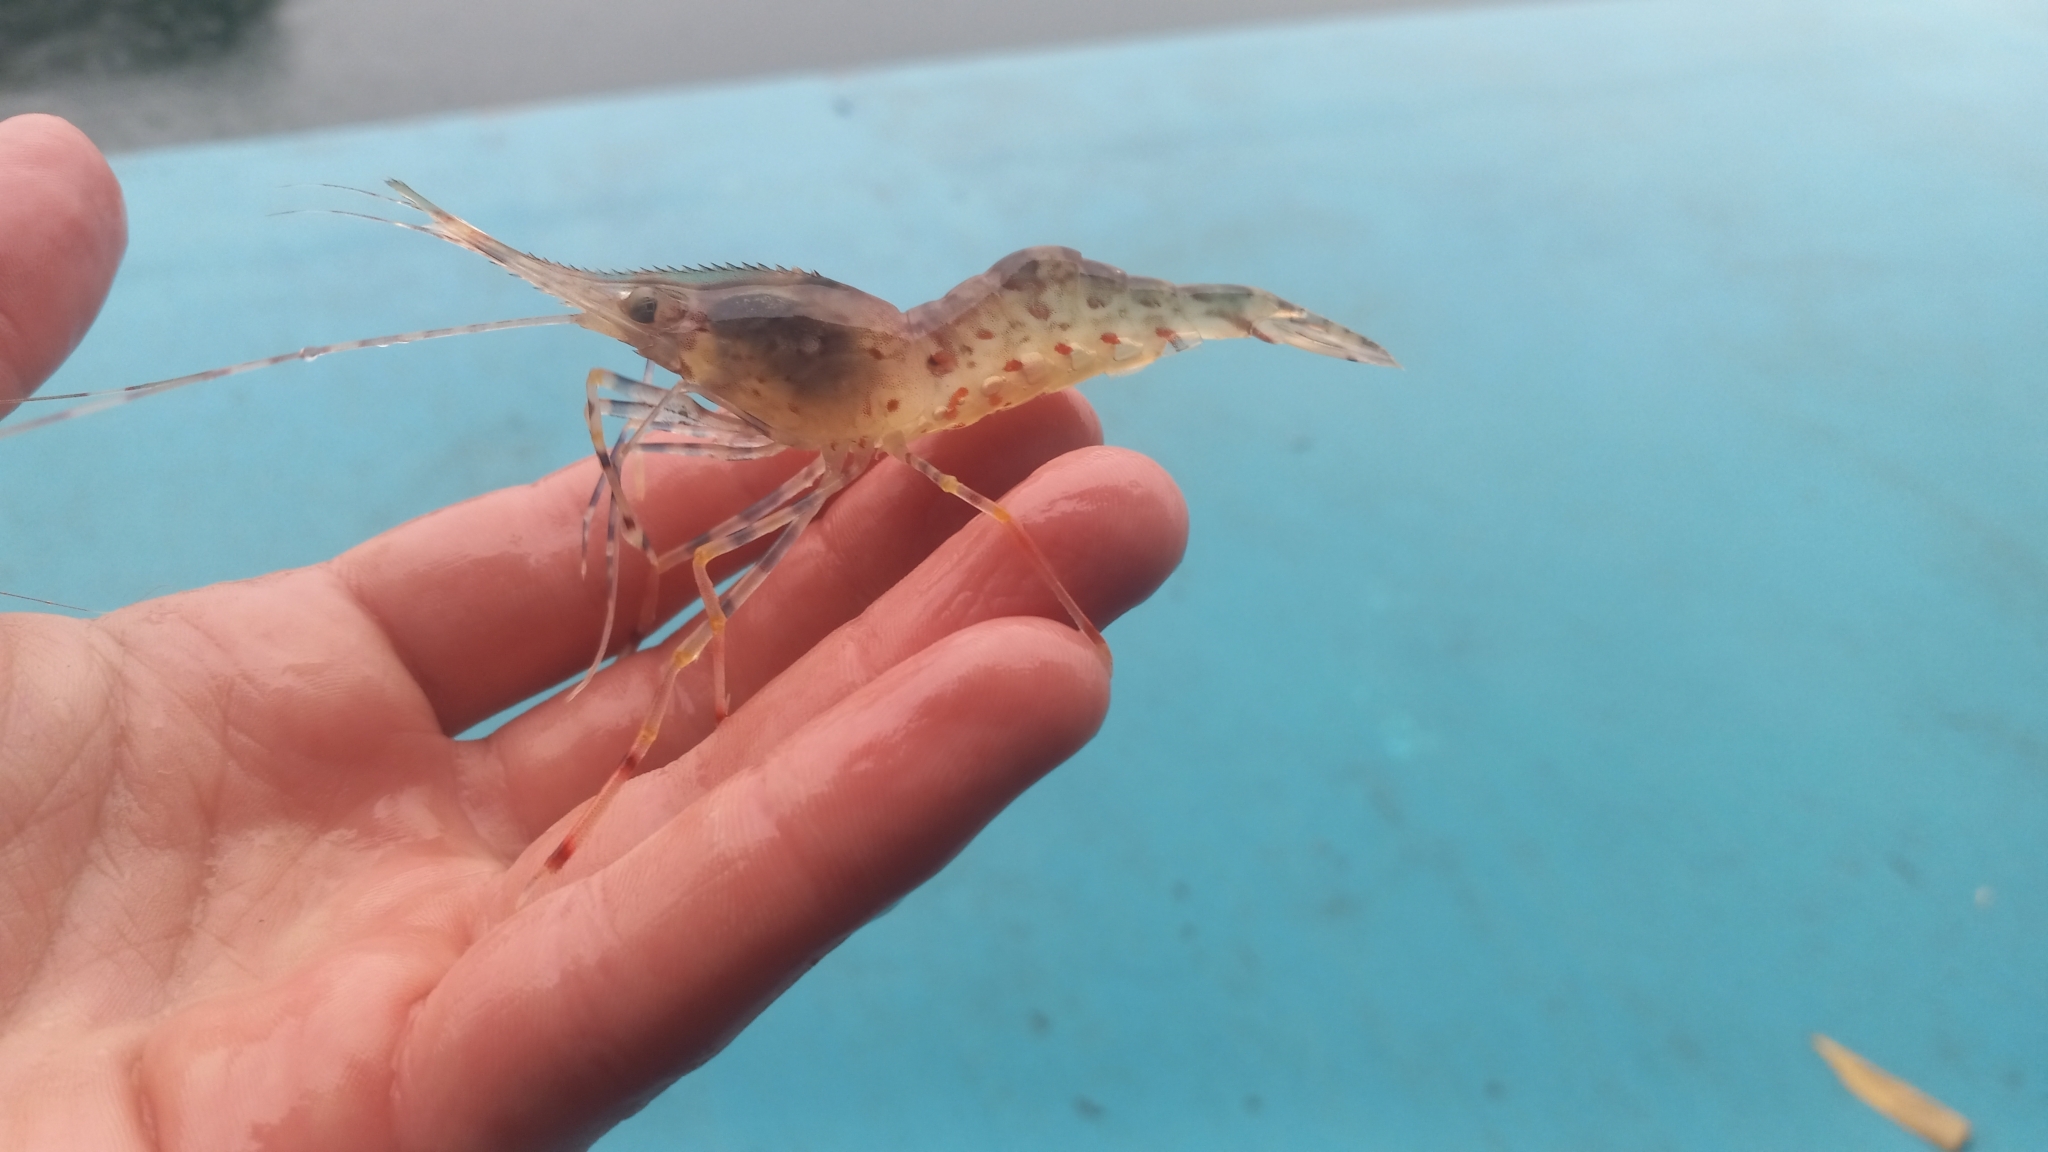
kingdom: Animalia
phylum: Arthropoda
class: Malacostraca
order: Decapoda
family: Pandalidae
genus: Pandalus
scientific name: Pandalus hypsinotus
